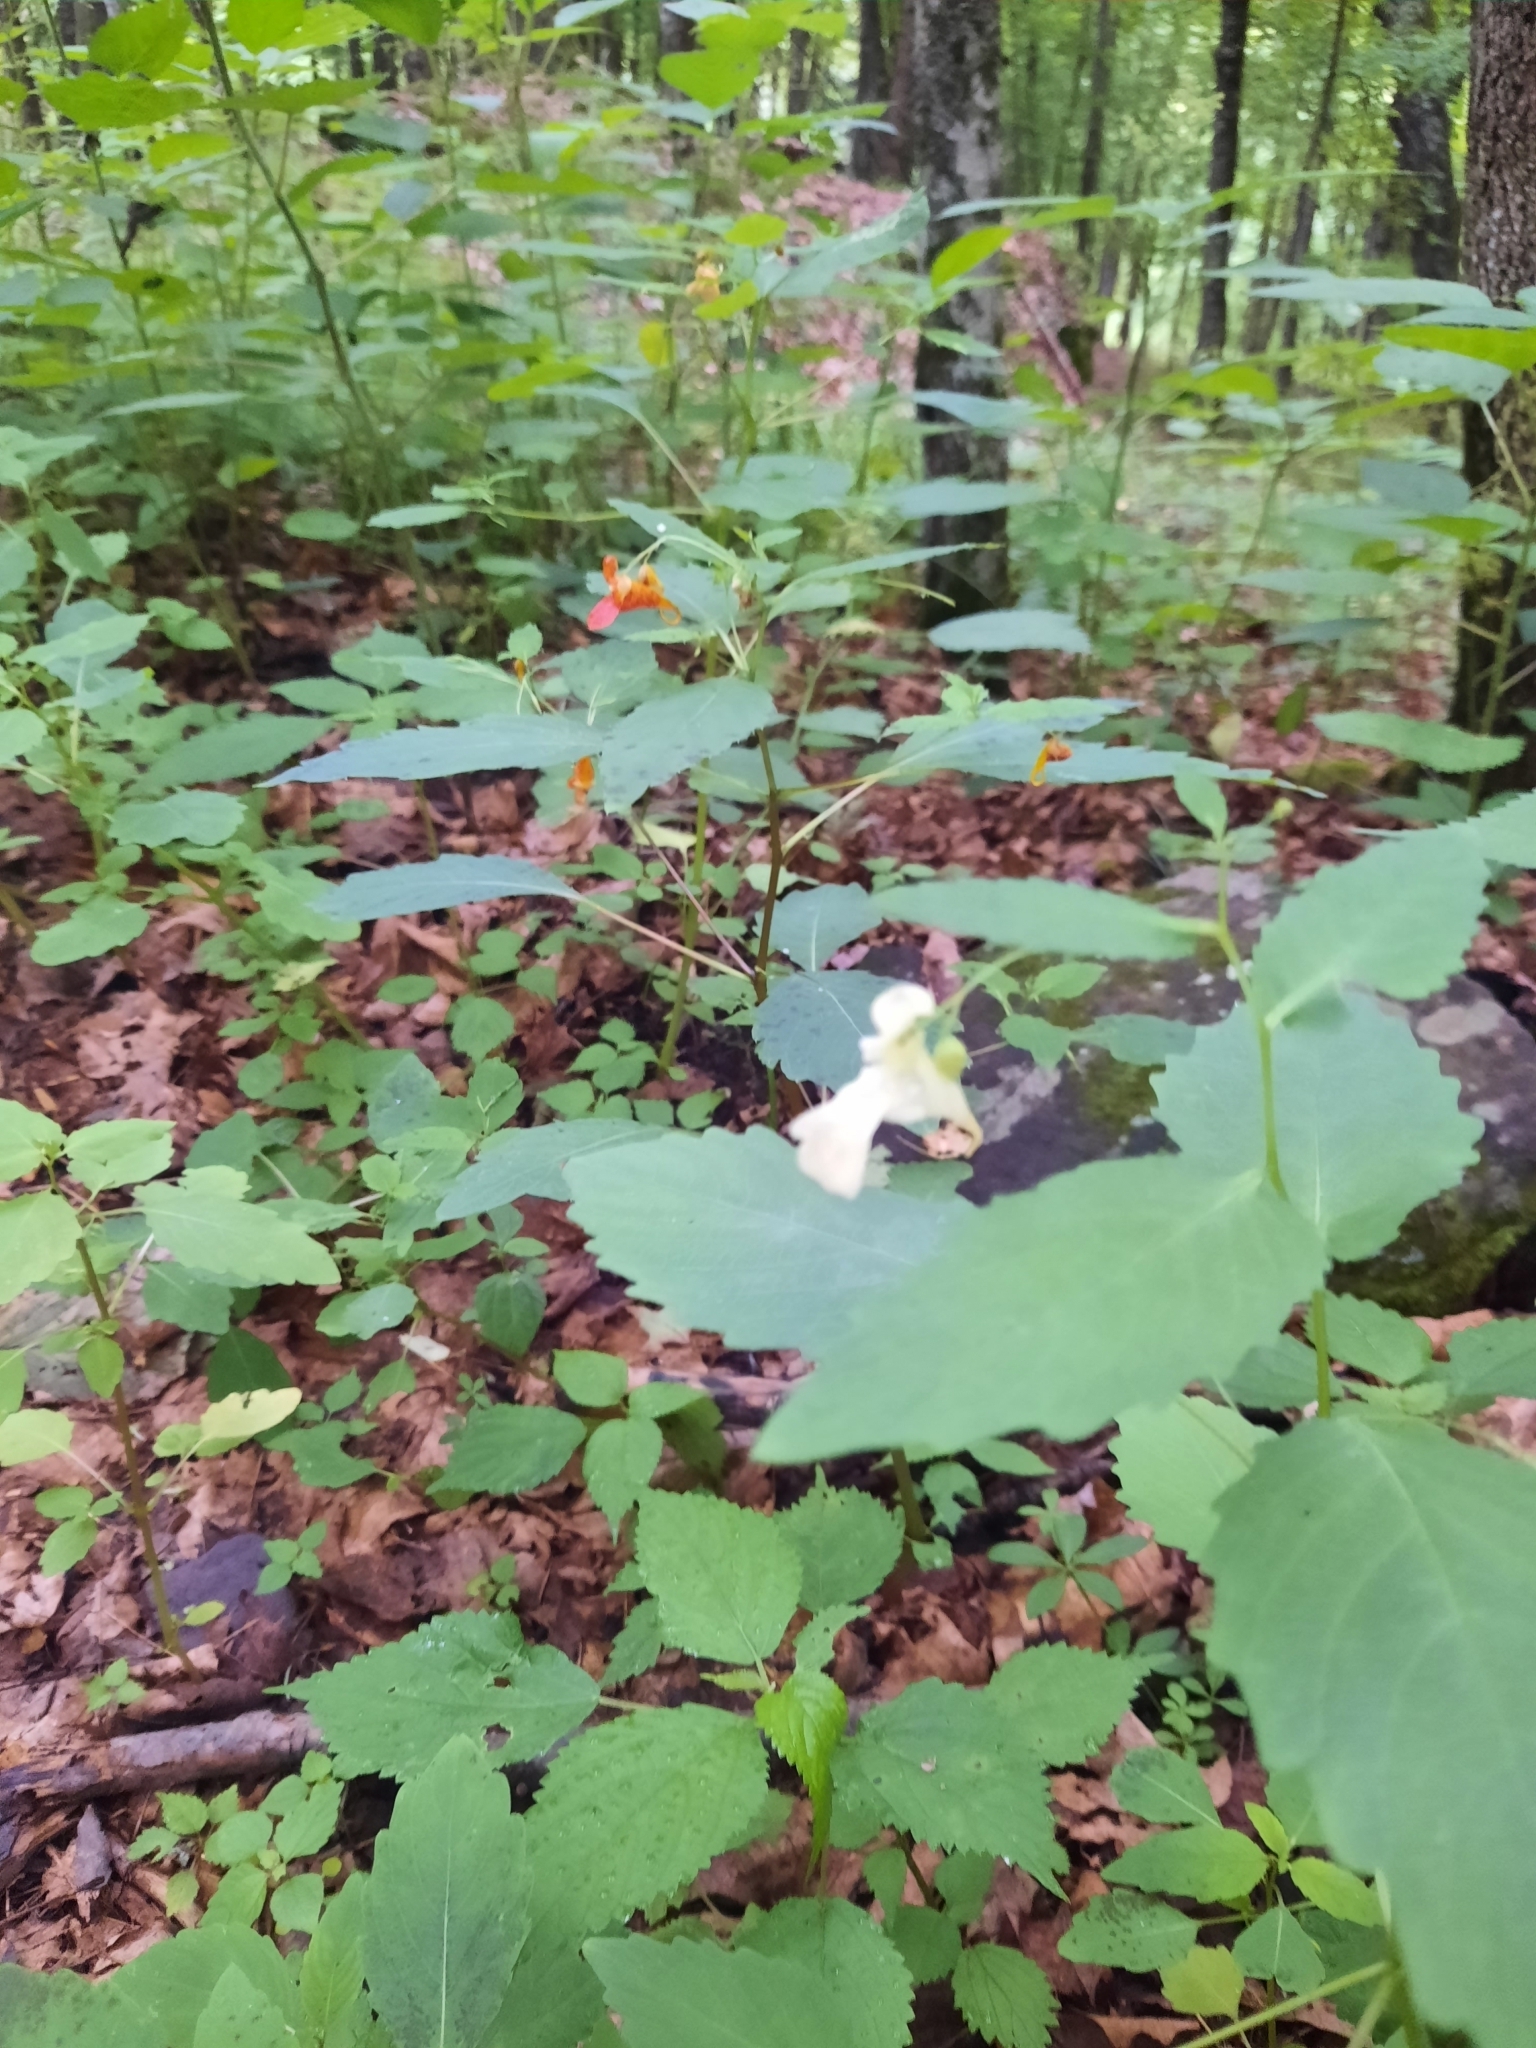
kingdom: Plantae
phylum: Tracheophyta
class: Magnoliopsida
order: Ericales
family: Balsaminaceae
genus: Impatiens
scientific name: Impatiens capensis
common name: Orange balsam
